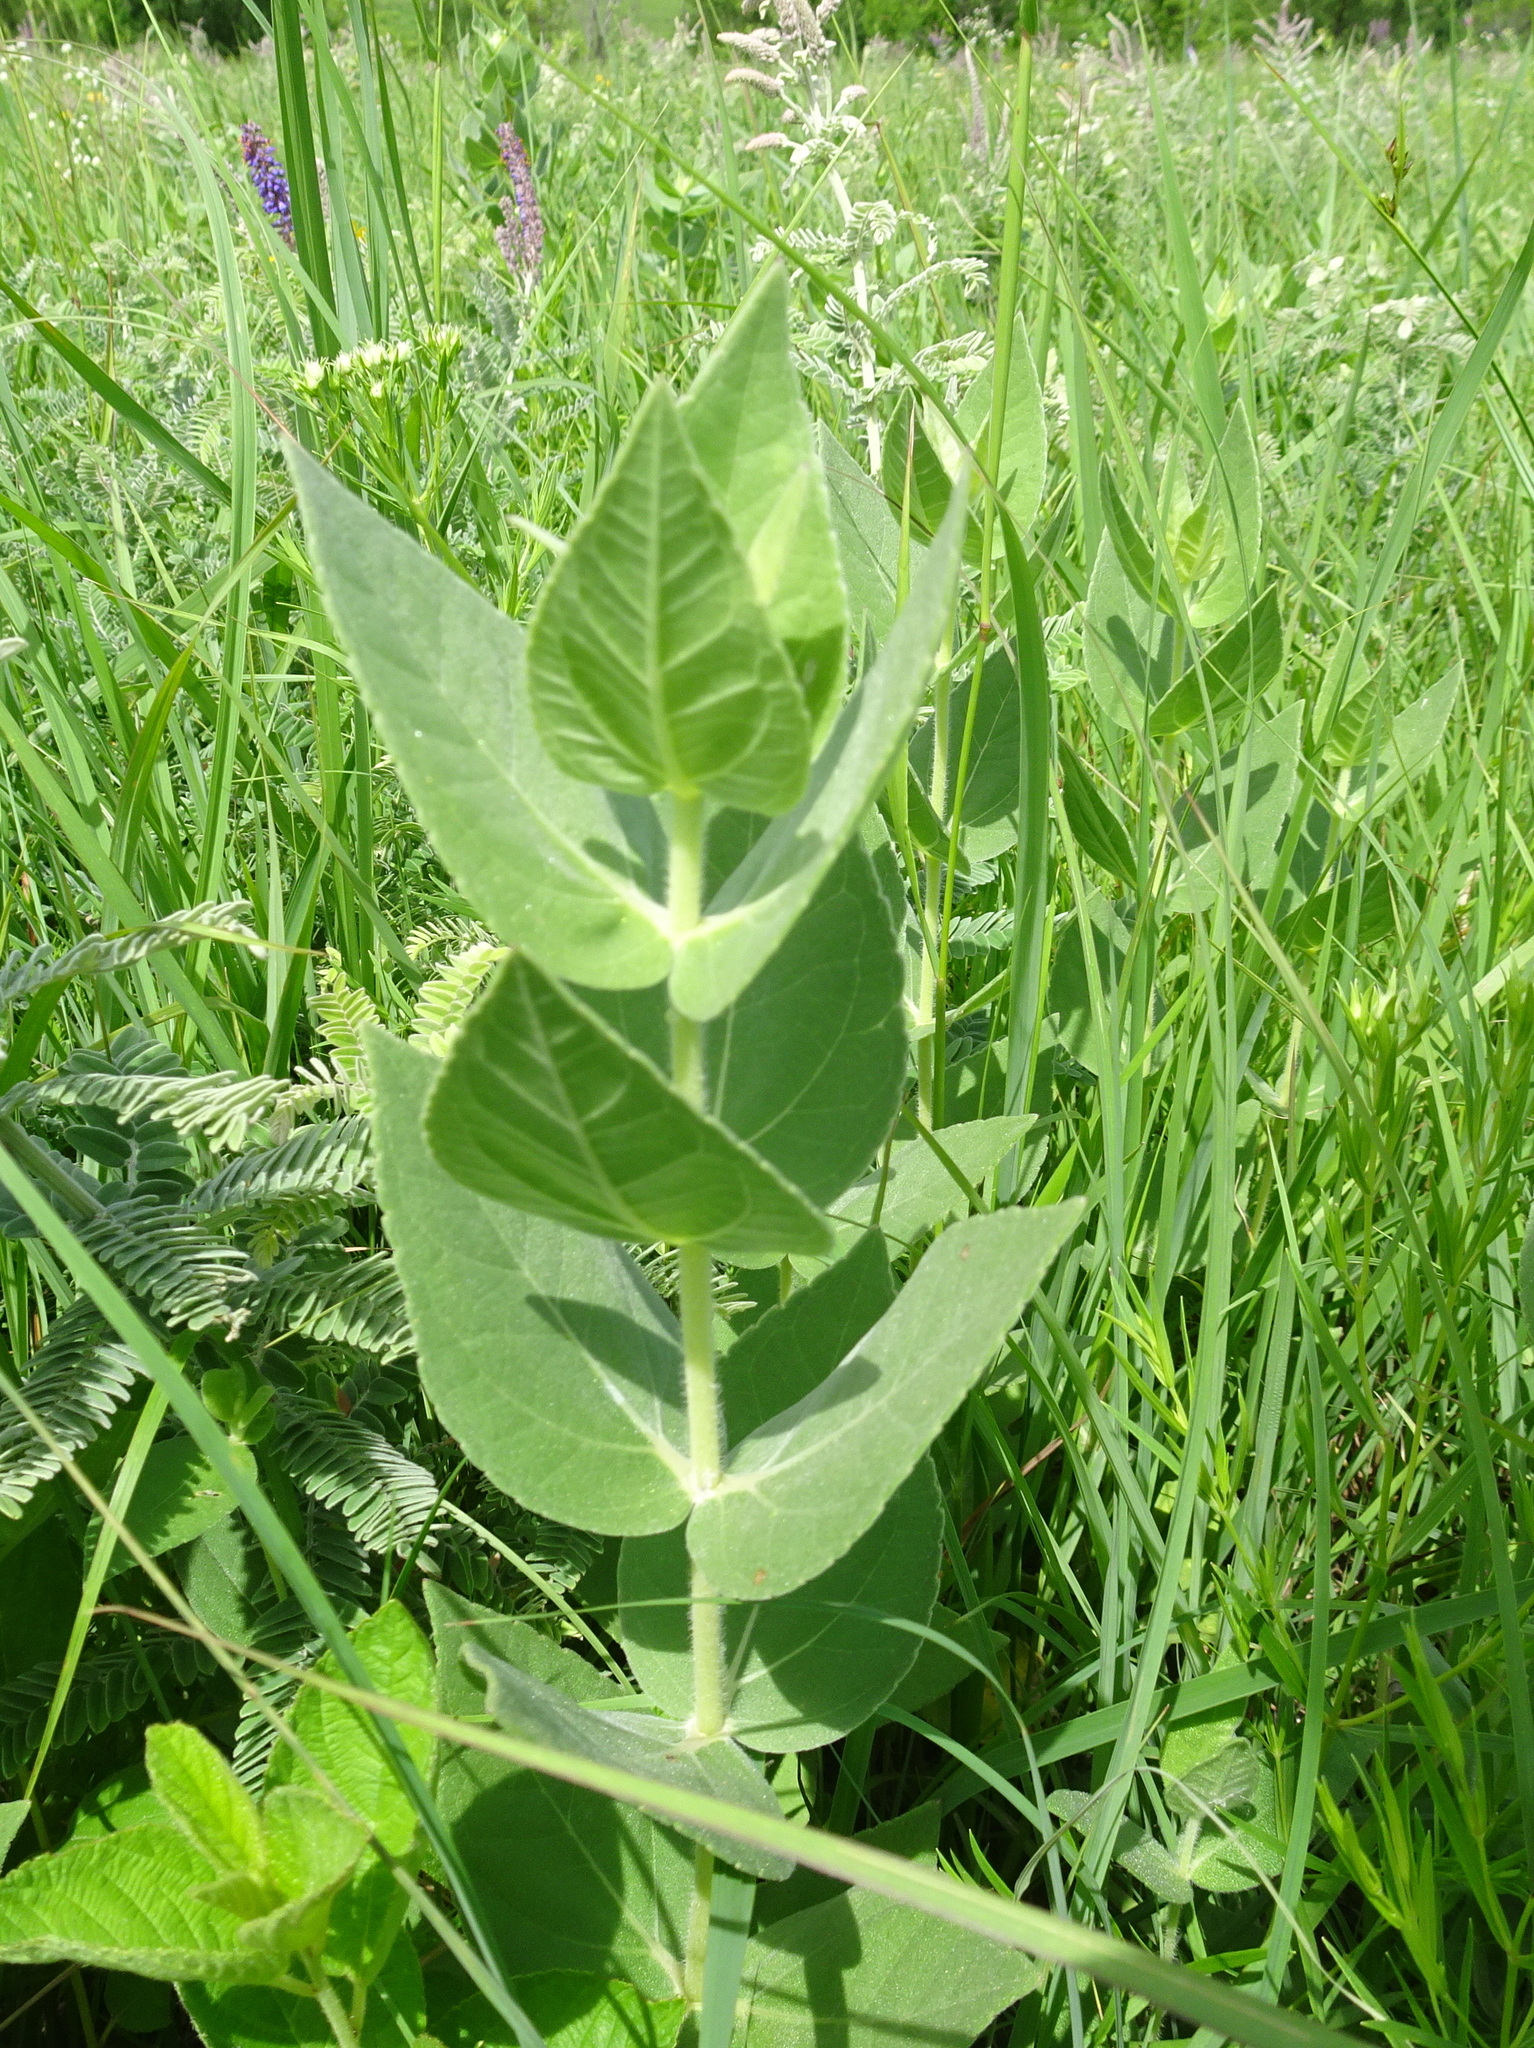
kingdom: Plantae
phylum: Tracheophyta
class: Magnoliopsida
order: Asterales
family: Asteraceae
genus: Helianthus
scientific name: Helianthus mollis
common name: Ashy sunflower
